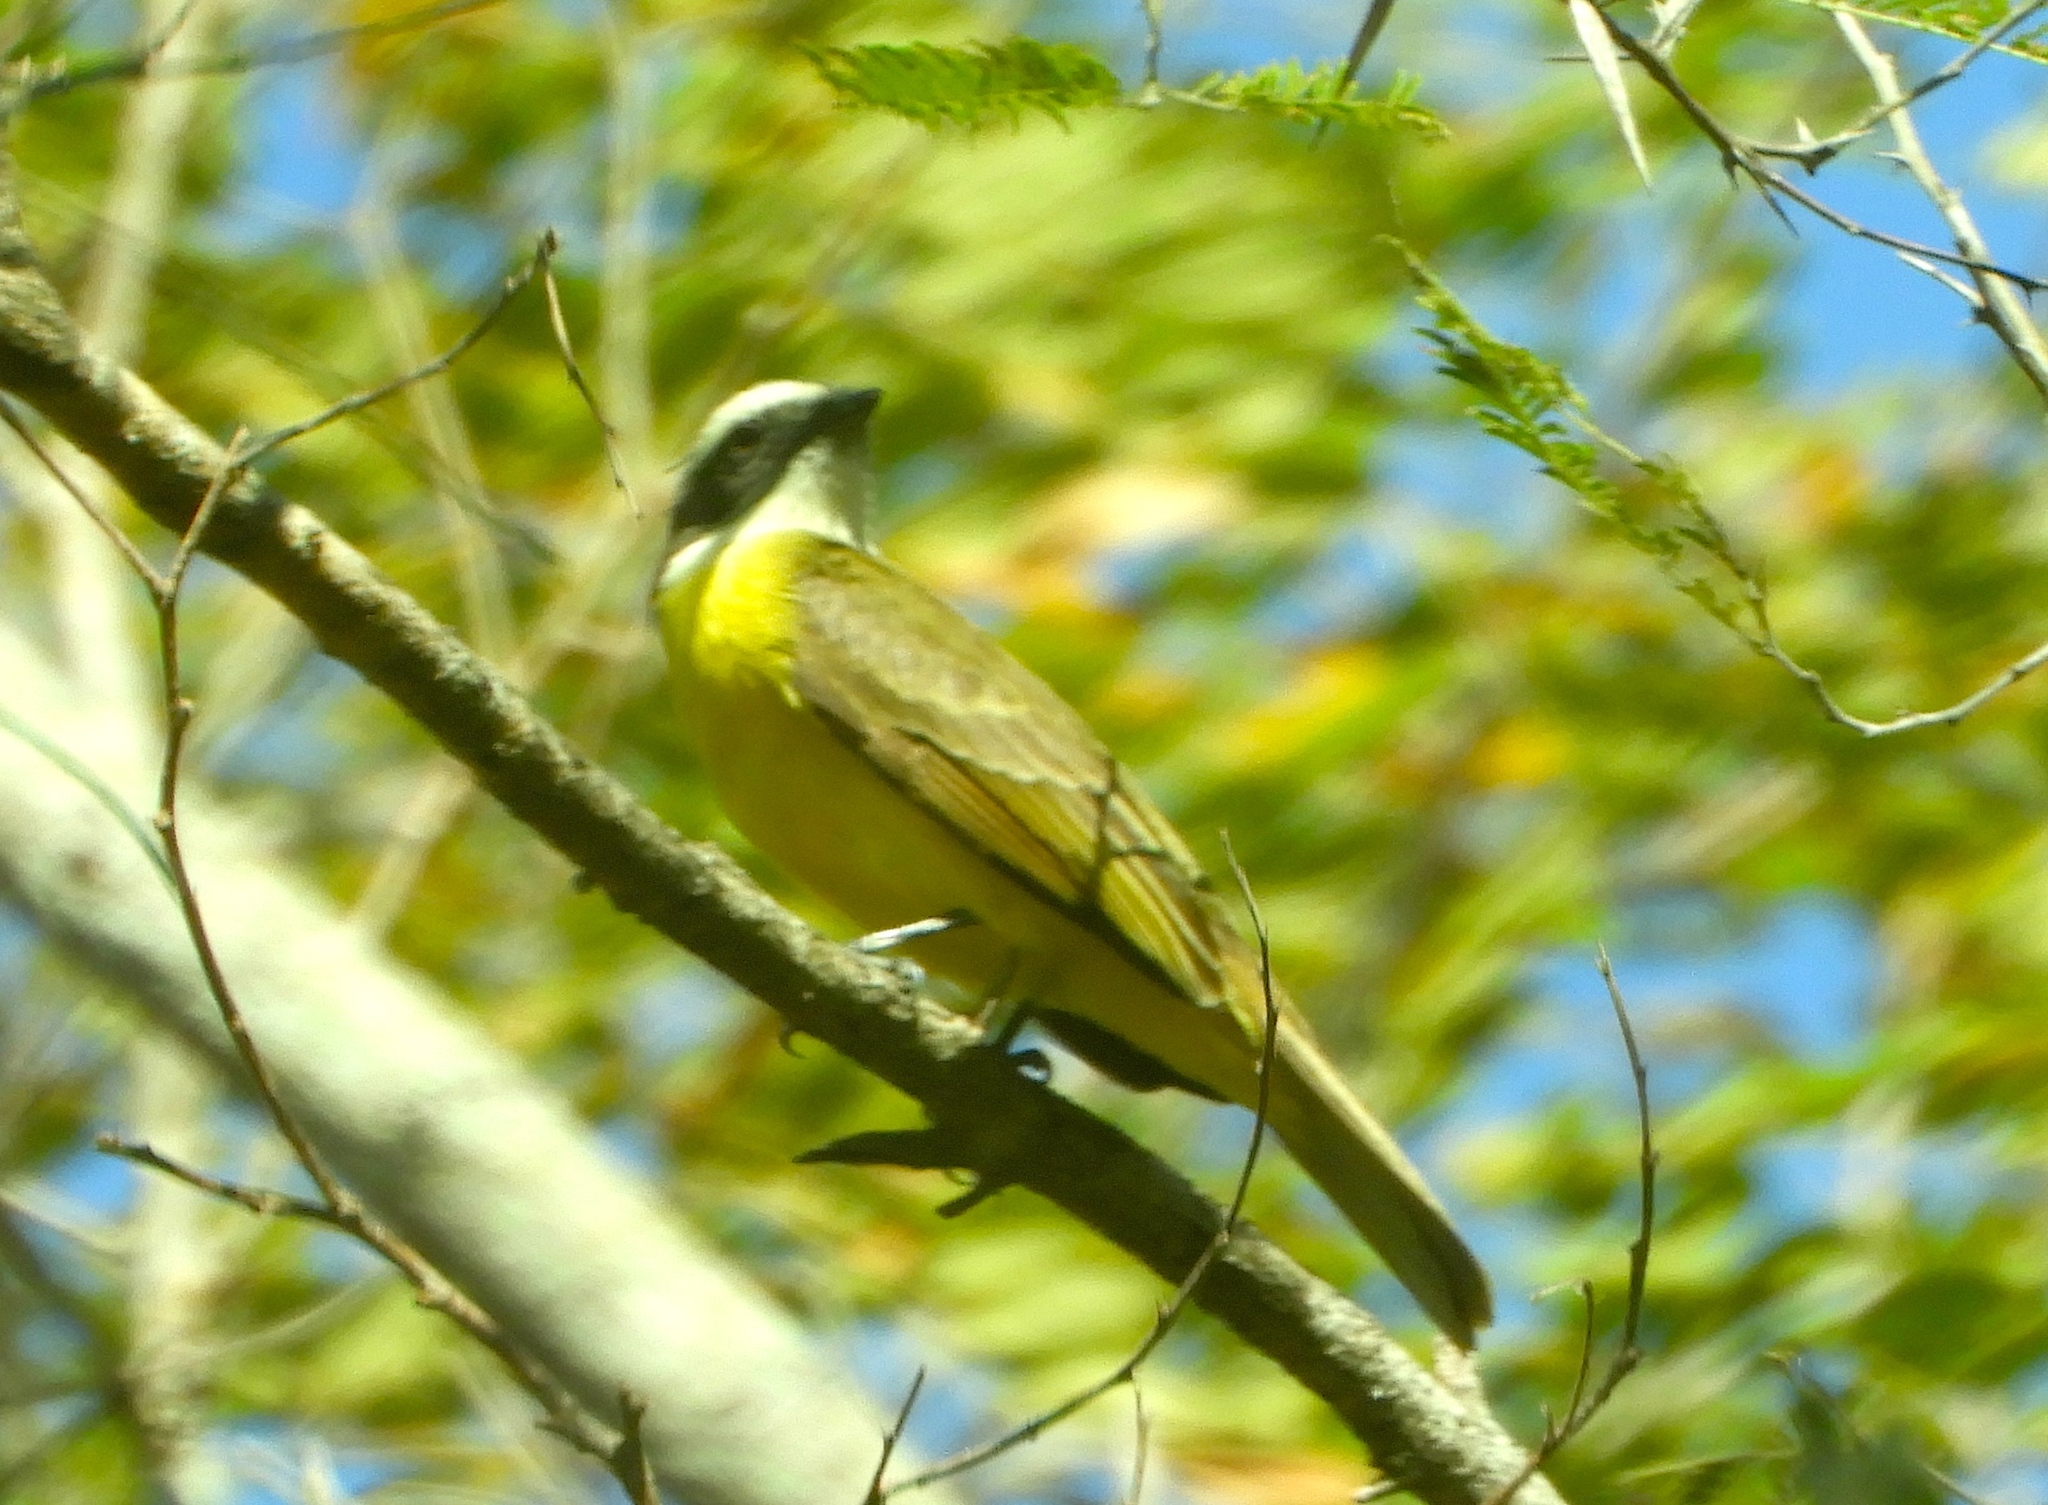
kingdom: Animalia
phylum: Chordata
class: Aves
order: Passeriformes
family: Tyrannidae
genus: Myiozetetes
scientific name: Myiozetetes similis
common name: Social flycatcher
